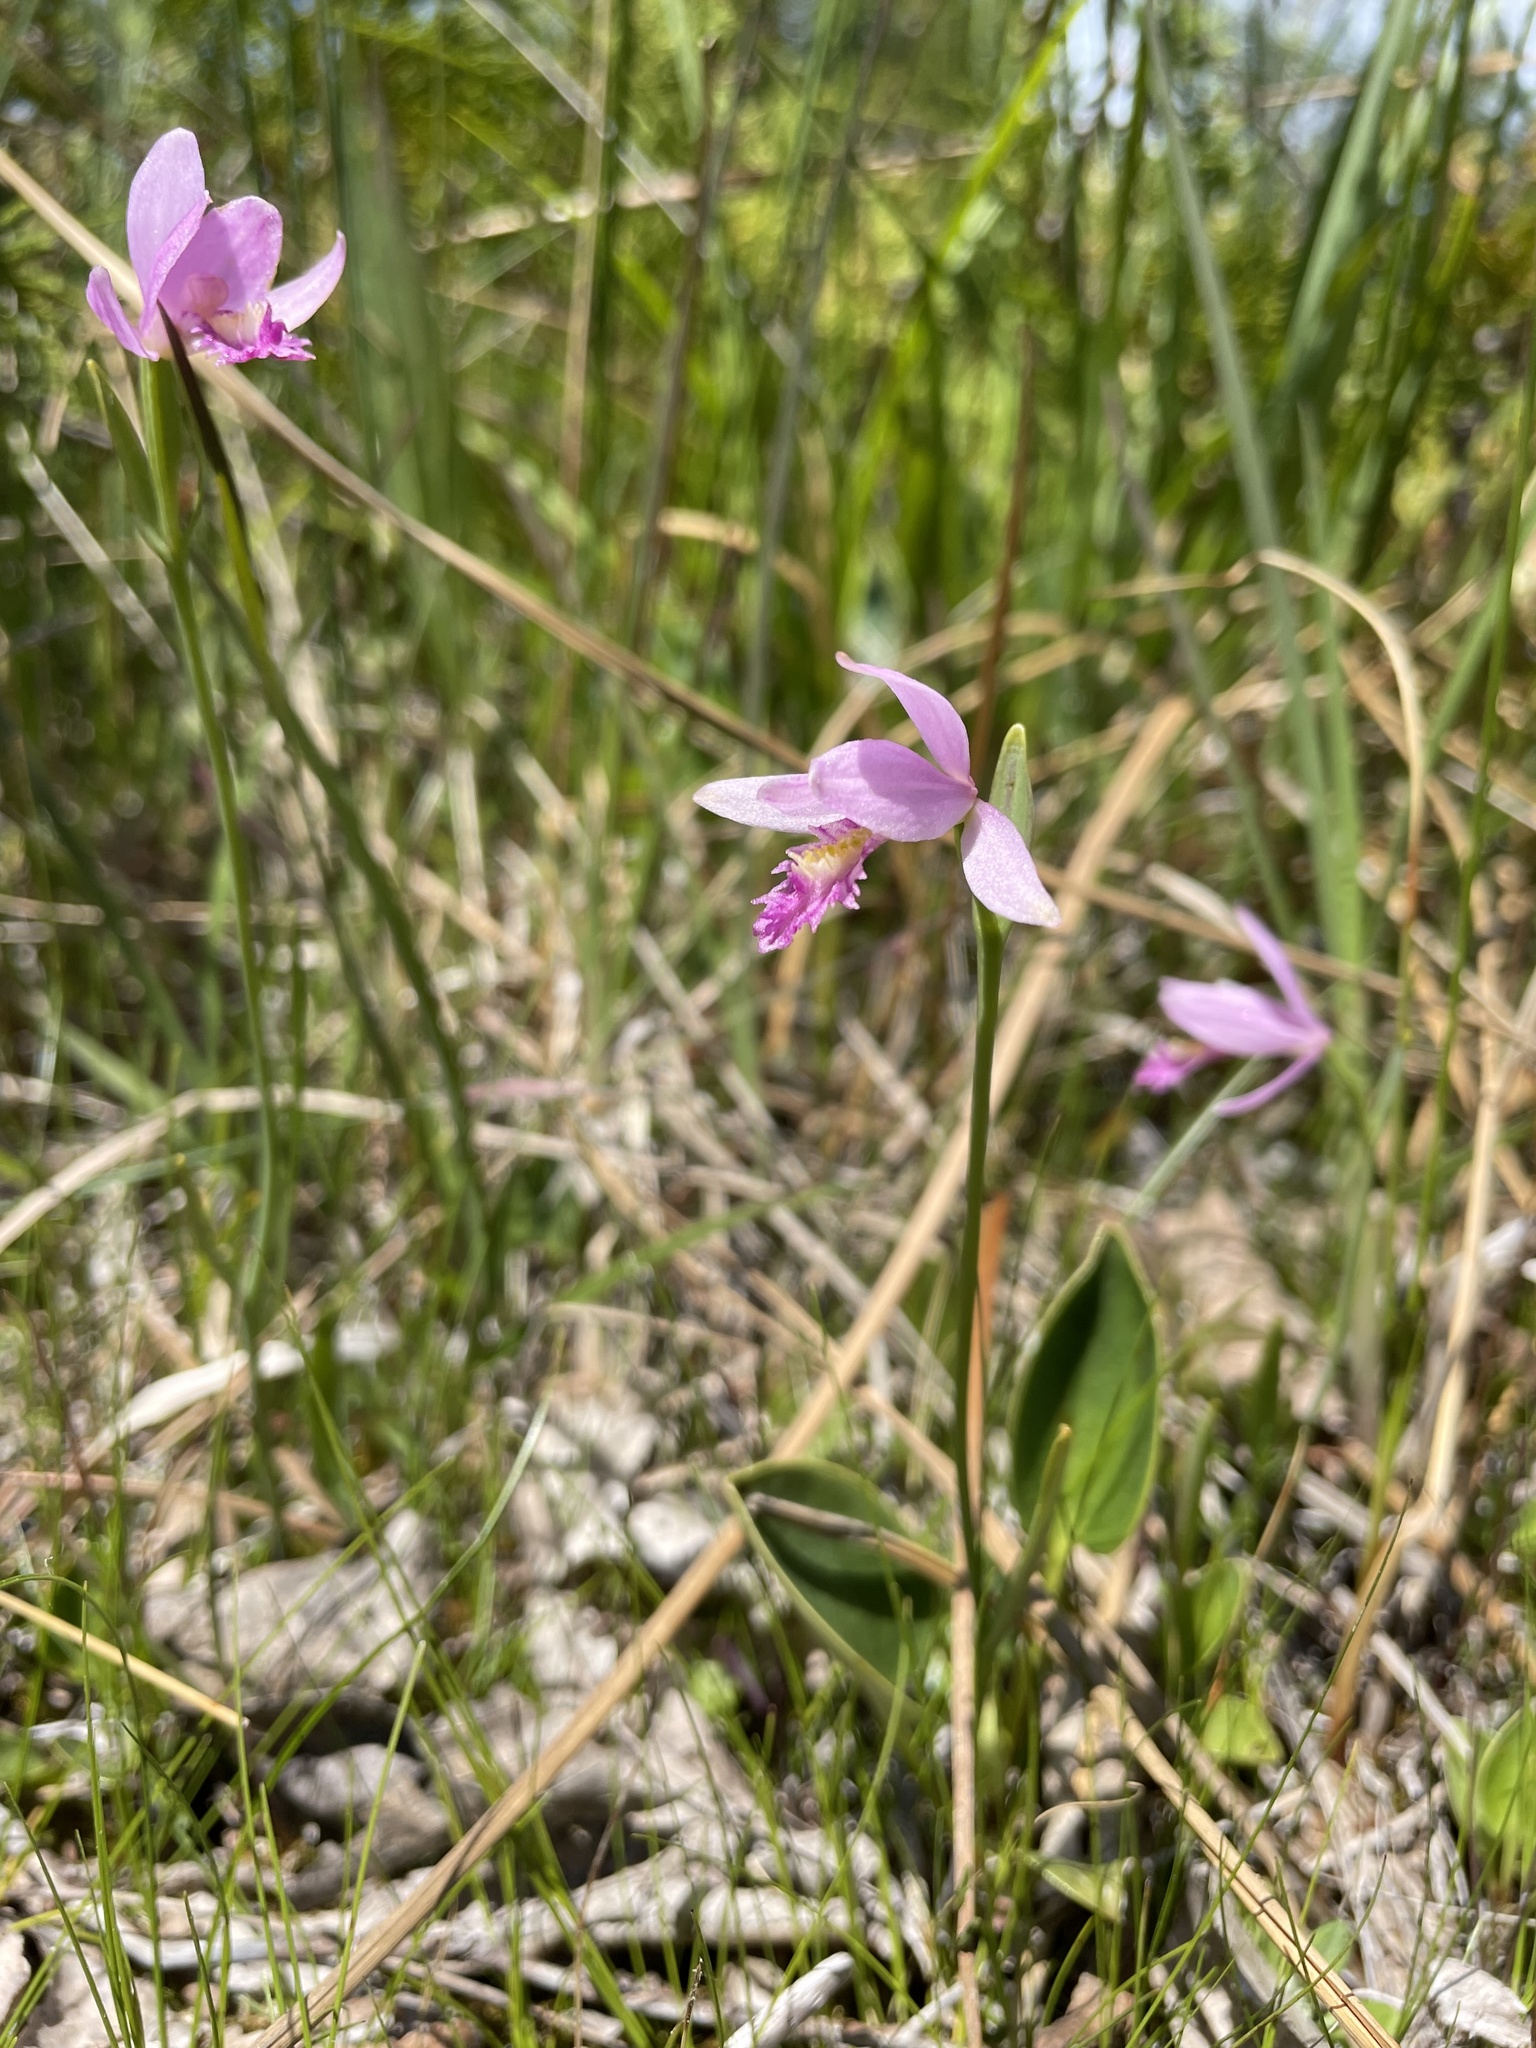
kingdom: Plantae
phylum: Tracheophyta
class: Liliopsida
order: Asparagales
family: Orchidaceae
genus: Pogonia
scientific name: Pogonia ophioglossoides
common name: Rose pogonia
